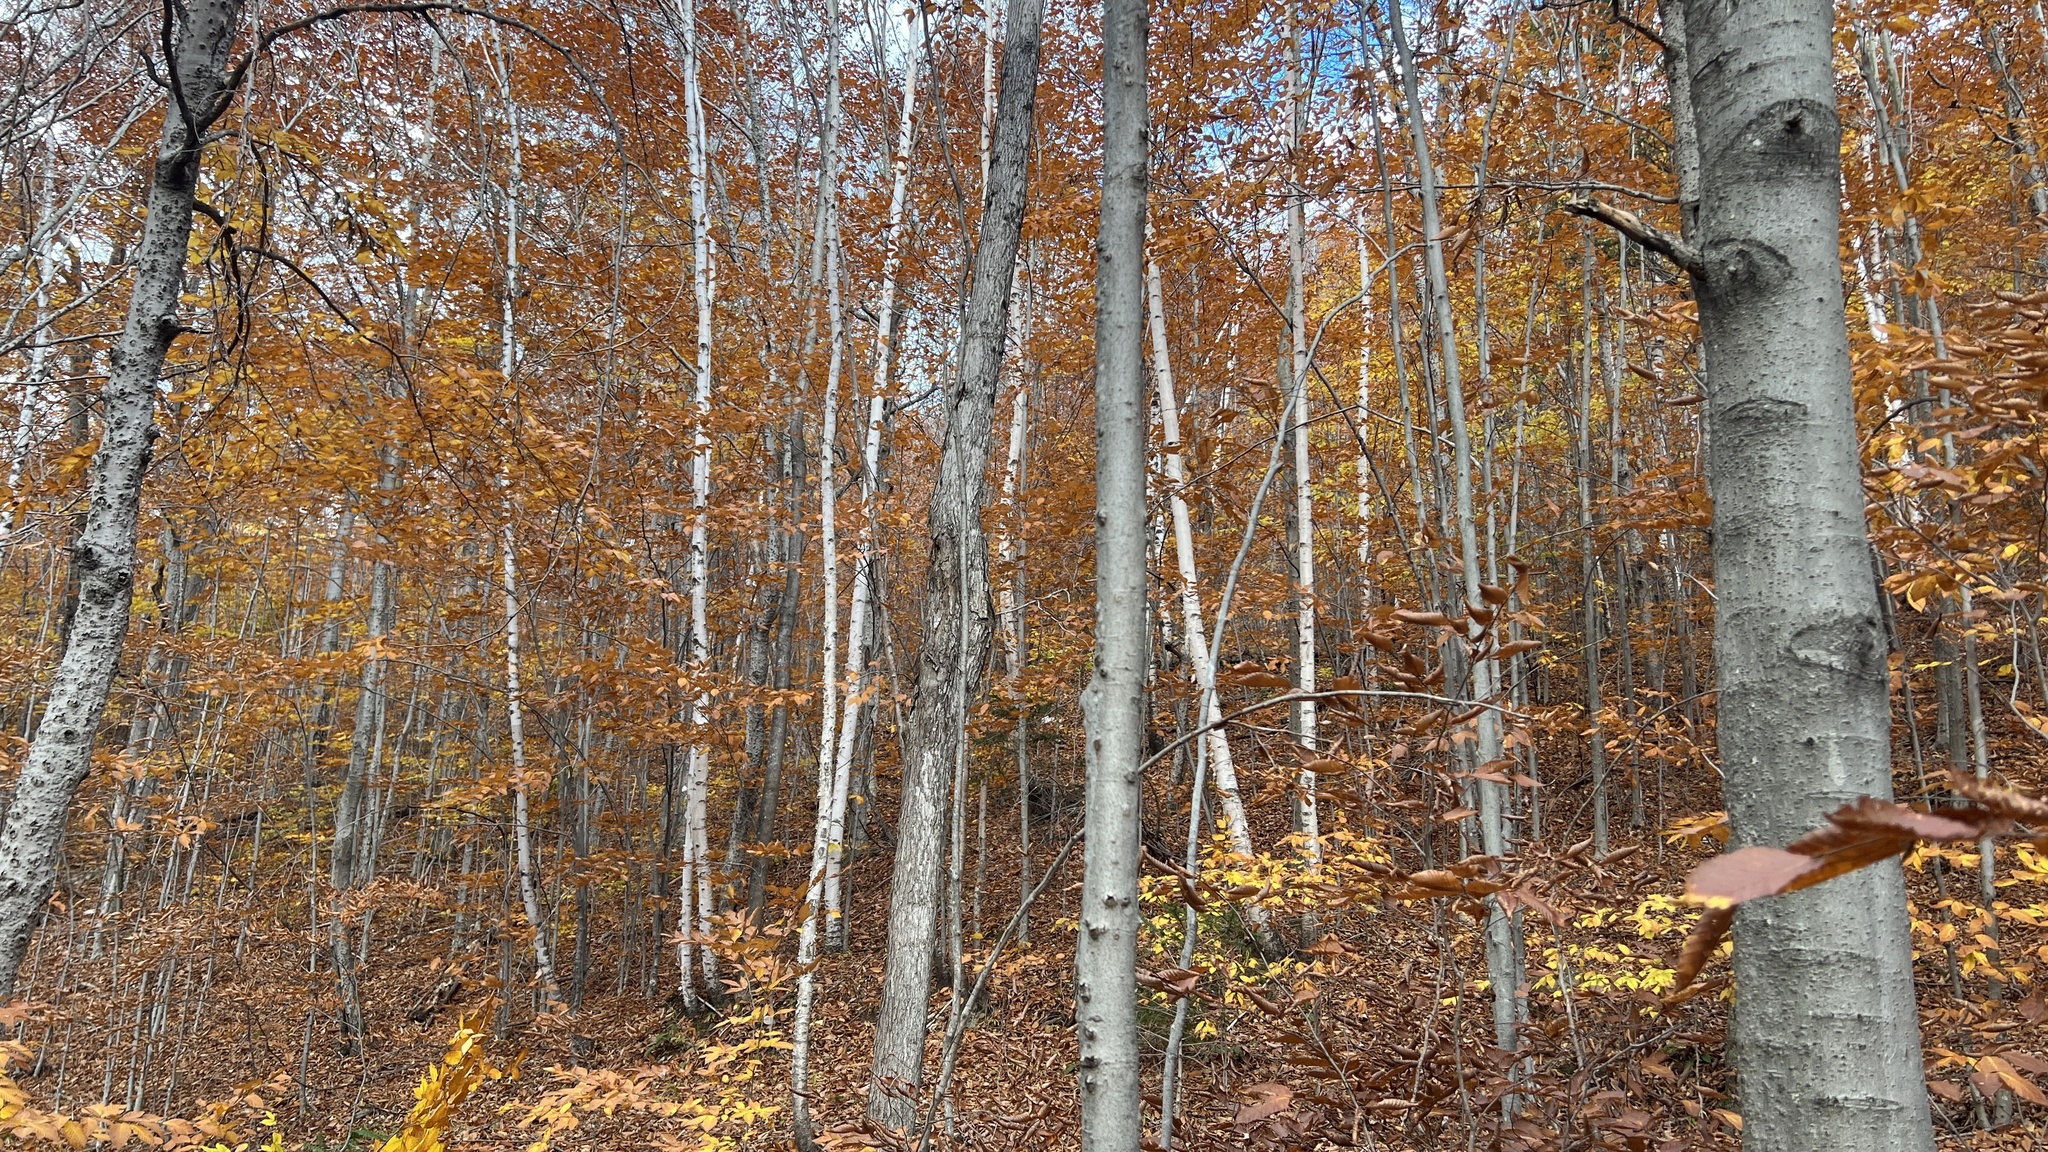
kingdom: Plantae
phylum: Tracheophyta
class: Magnoliopsida
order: Fagales
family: Betulaceae
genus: Betula
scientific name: Betula papyrifera
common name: Paper birch
